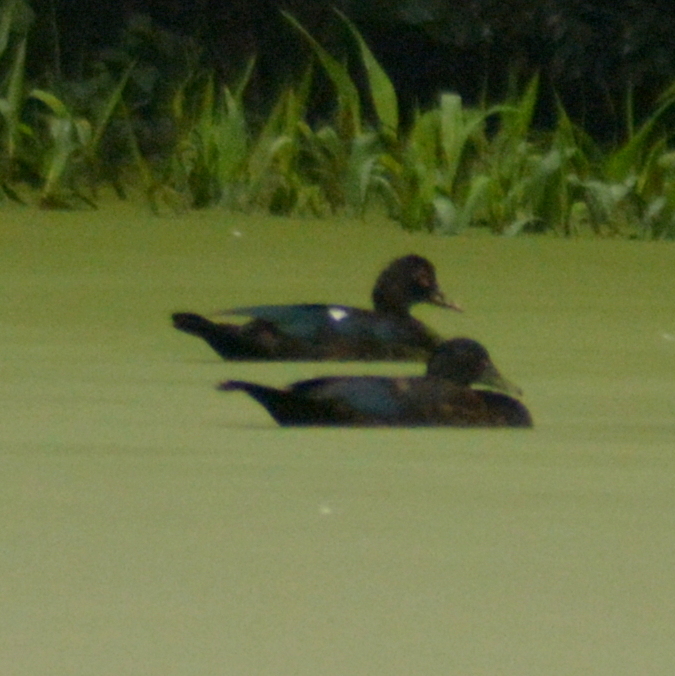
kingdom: Animalia
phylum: Chordata
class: Aves
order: Anseriformes
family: Anatidae
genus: Cairina
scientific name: Cairina moschata
